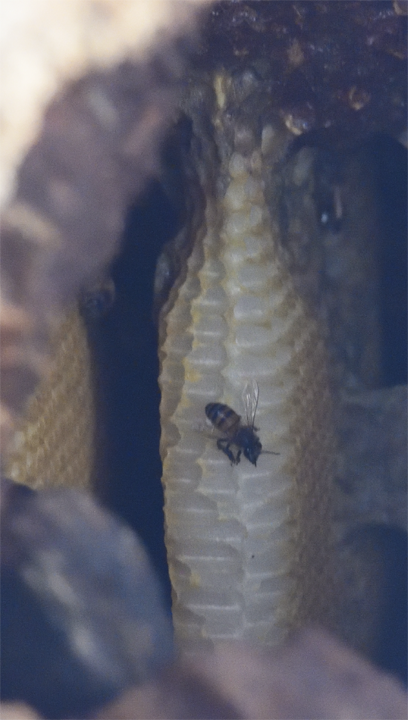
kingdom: Animalia
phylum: Arthropoda
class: Insecta
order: Hymenoptera
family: Apidae
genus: Apis
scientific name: Apis mellifera
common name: Honey bee
